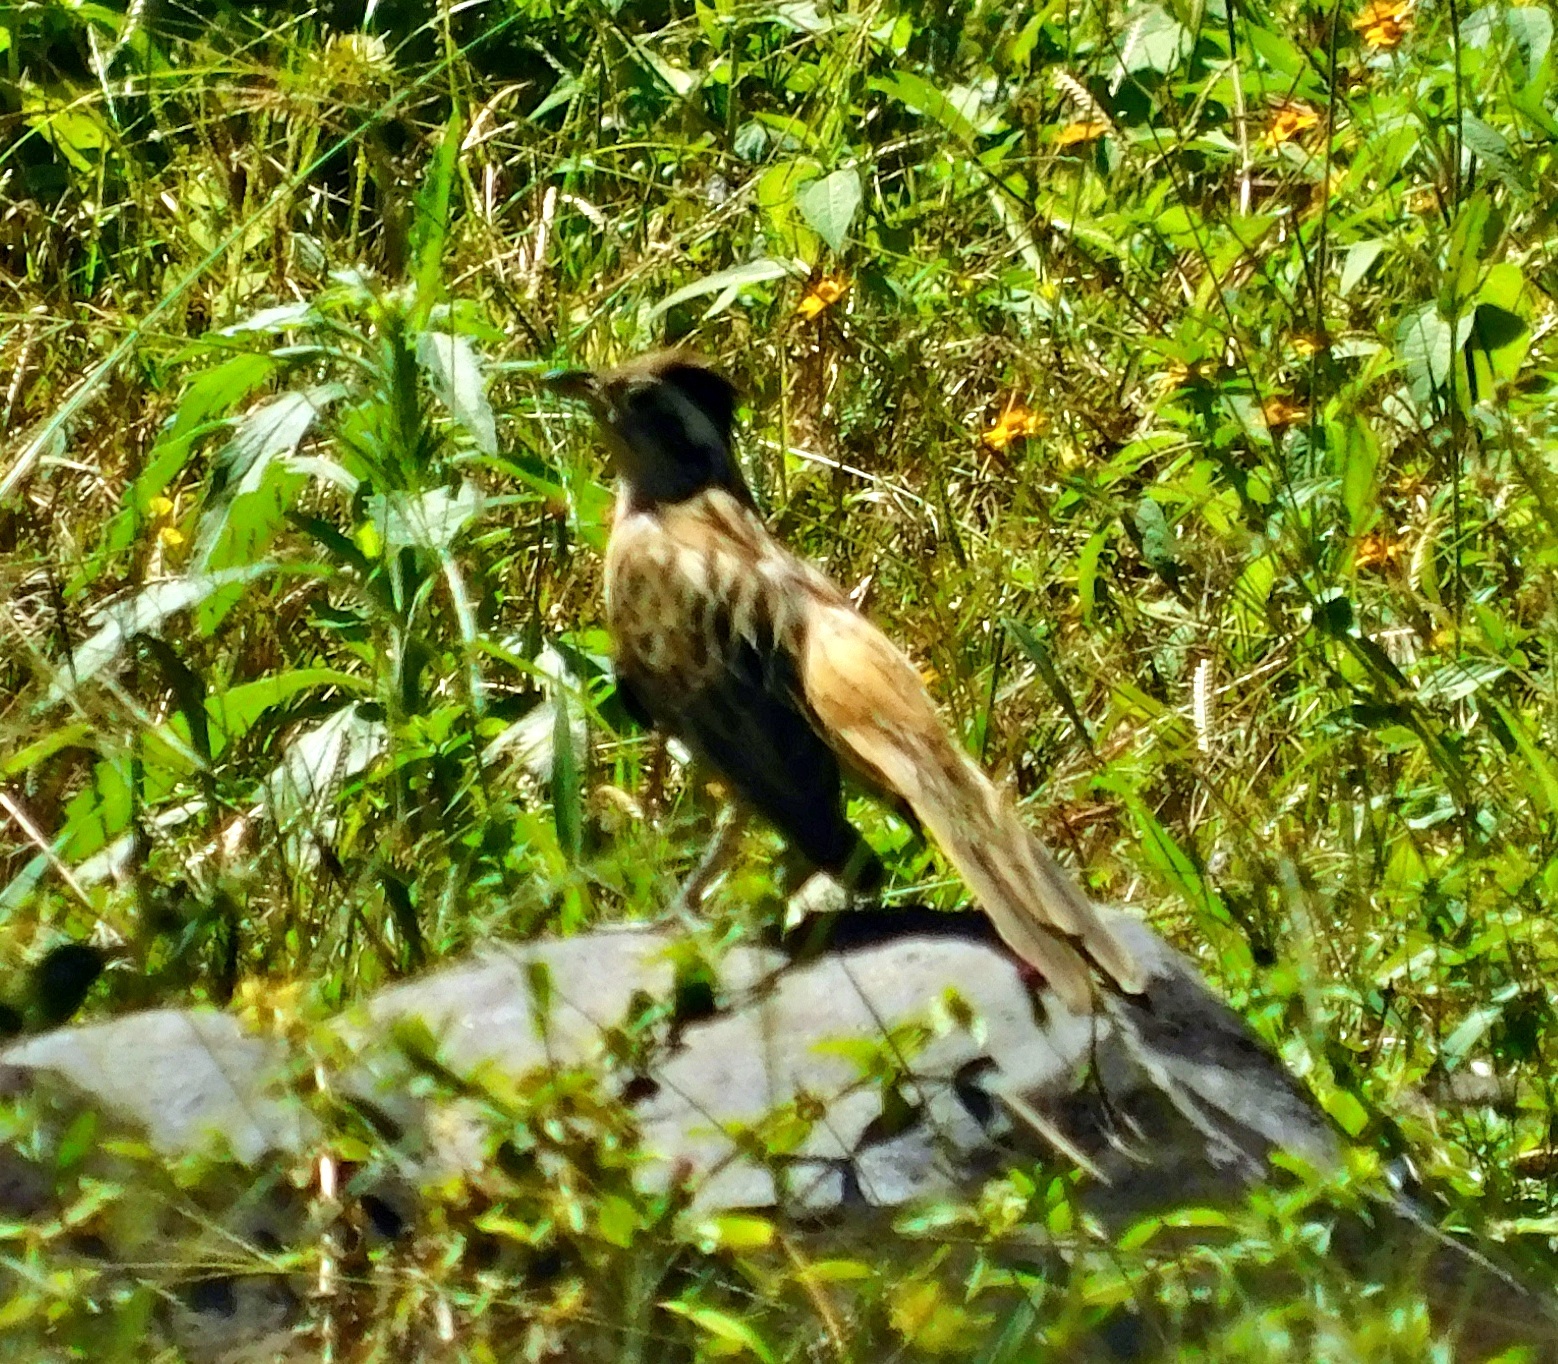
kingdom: Animalia
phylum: Chordata
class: Aves
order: Cuculiformes
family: Cuculidae
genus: Tapera
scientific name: Tapera naevia
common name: Striped cuckoo
